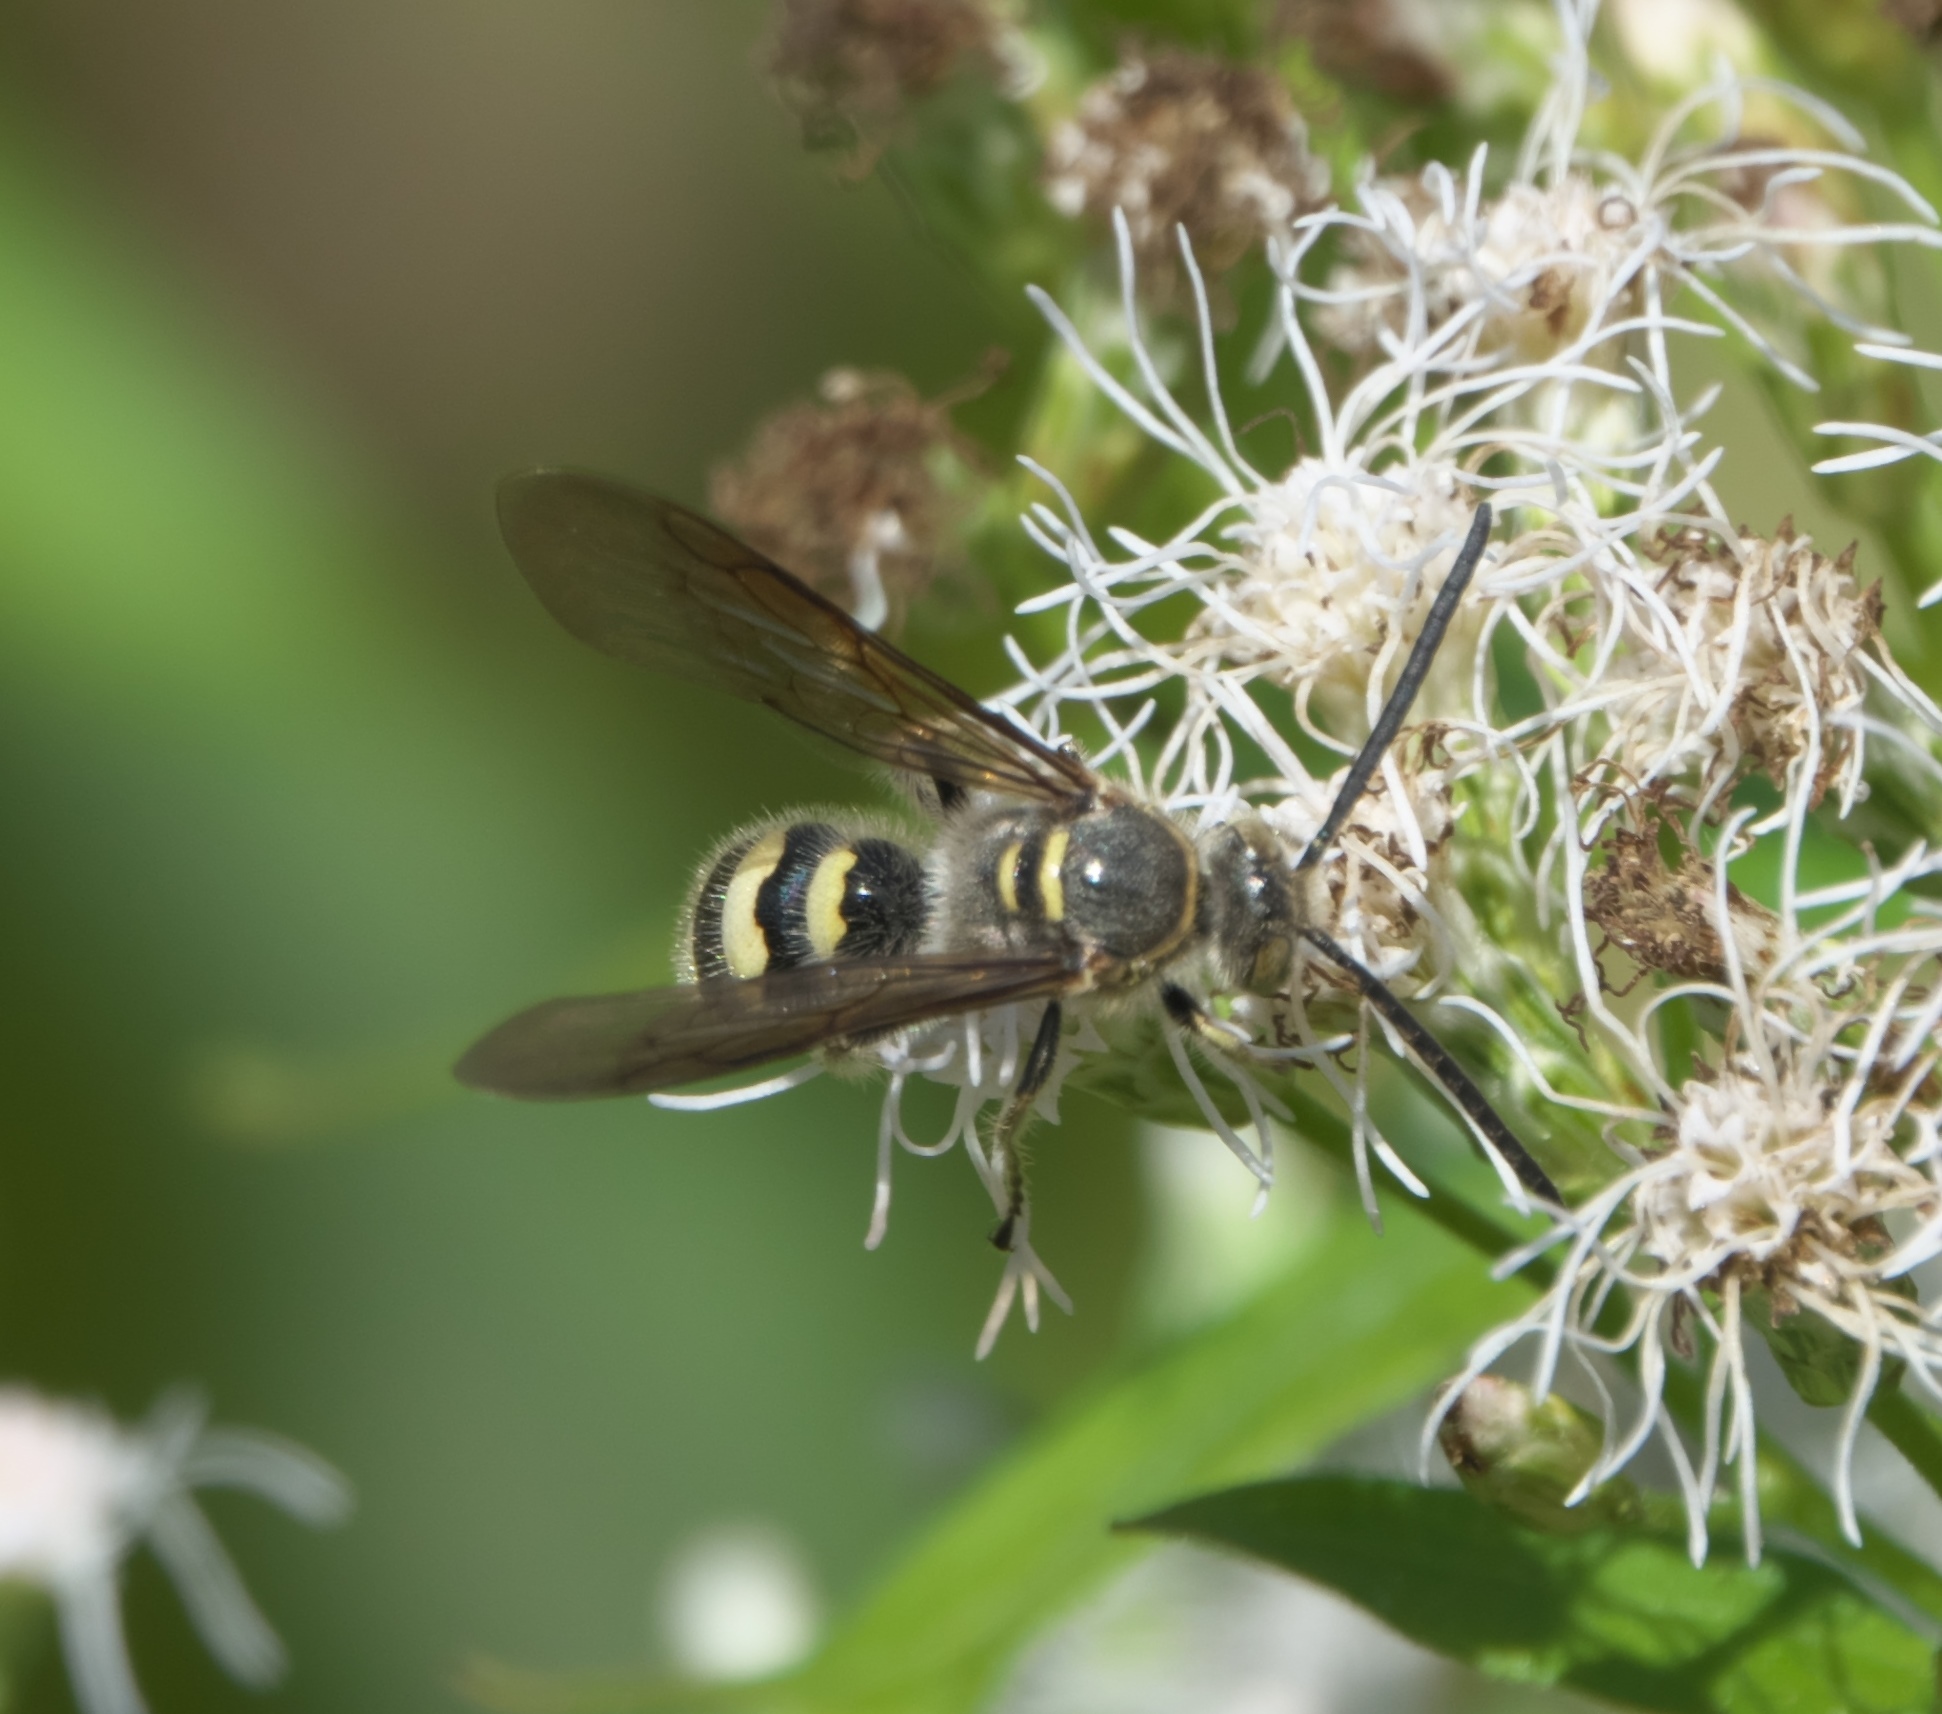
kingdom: Animalia
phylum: Arthropoda
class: Insecta
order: Hymenoptera
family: Scoliidae
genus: Dielis
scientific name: Dielis dorsata
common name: Scoliid wasp
